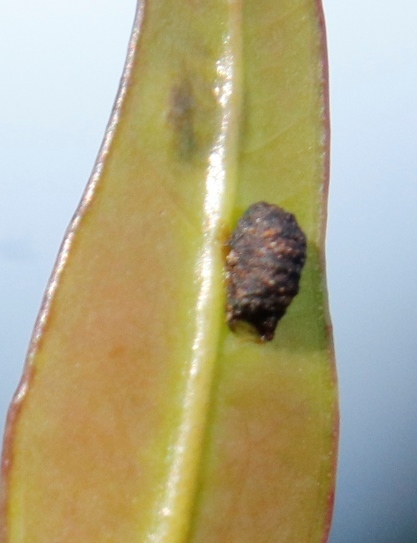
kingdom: Animalia
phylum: Arthropoda
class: Insecta
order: Coleoptera
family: Curculionidae
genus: Gonipterus
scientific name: Gonipterus
